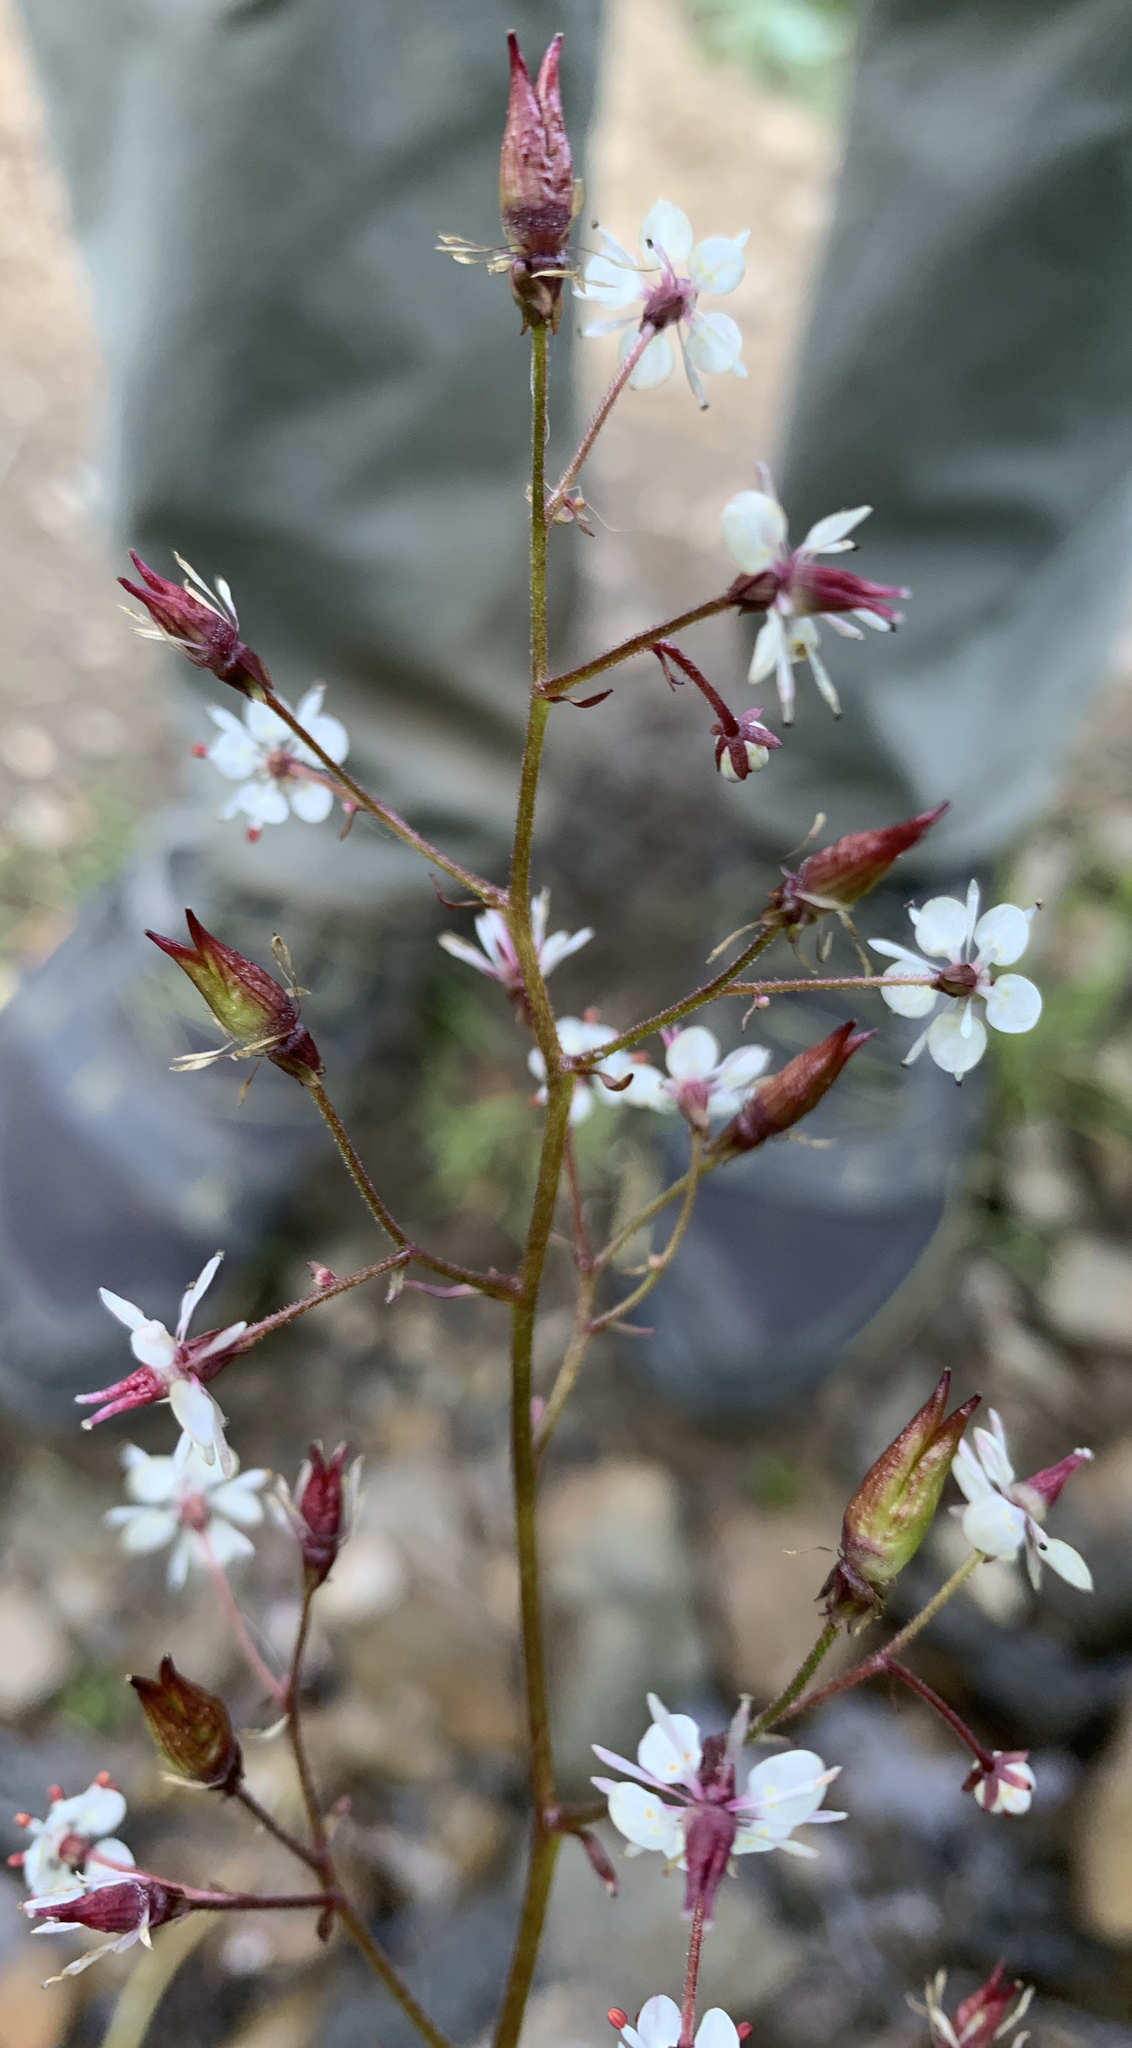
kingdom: Plantae
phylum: Tracheophyta
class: Magnoliopsida
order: Saxifragales
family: Saxifragaceae
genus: Micranthes
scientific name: Micranthes odontoloma
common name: Brook saxifrage
